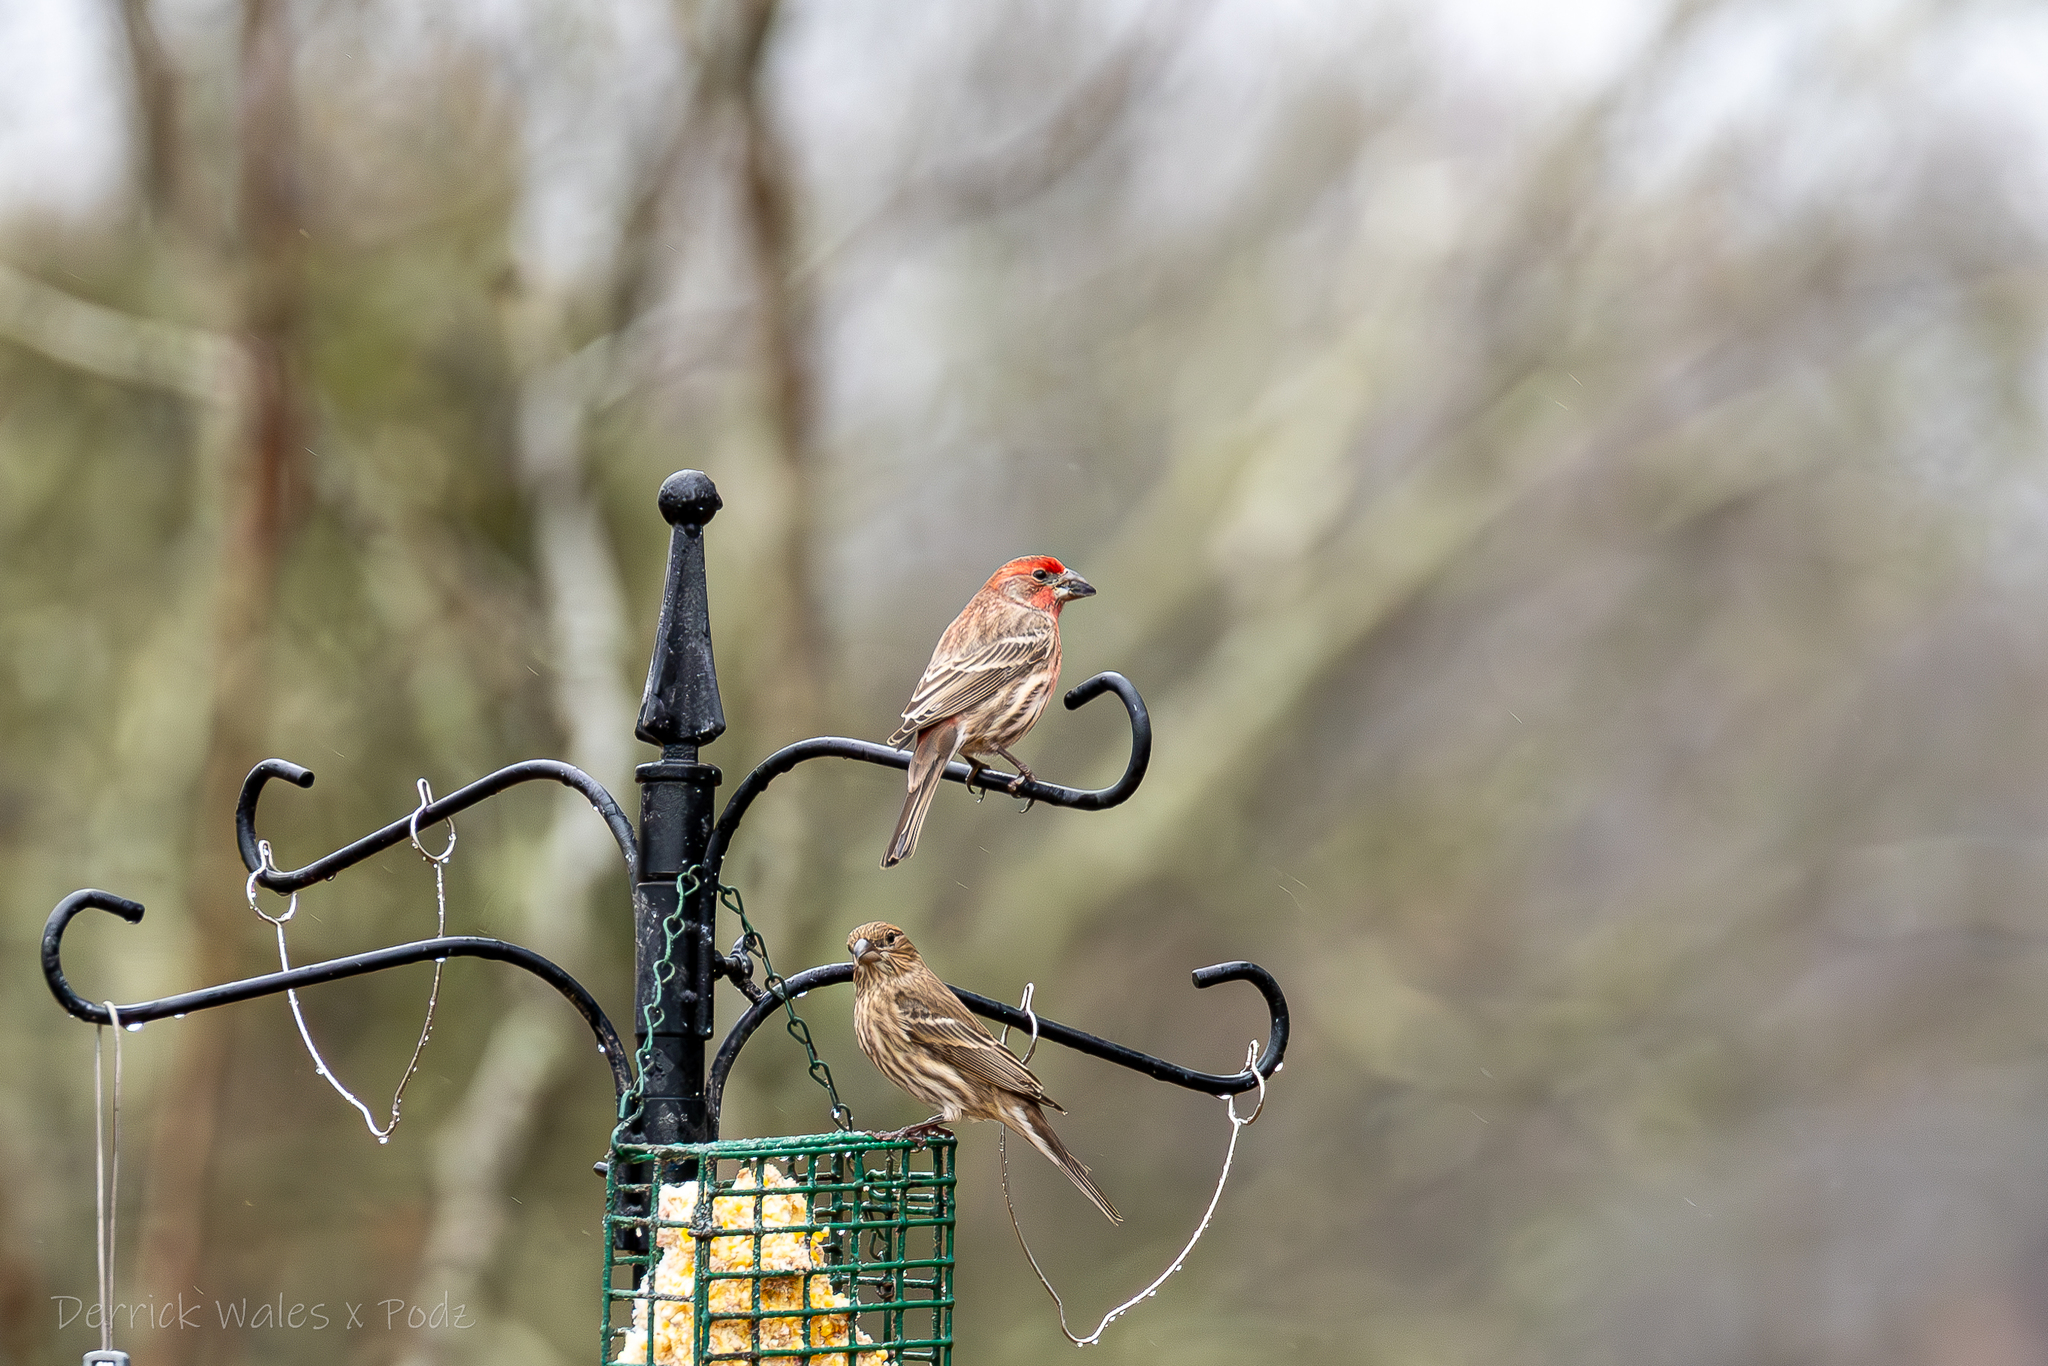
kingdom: Animalia
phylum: Chordata
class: Aves
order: Passeriformes
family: Fringillidae
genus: Haemorhous
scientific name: Haemorhous mexicanus
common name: House finch
